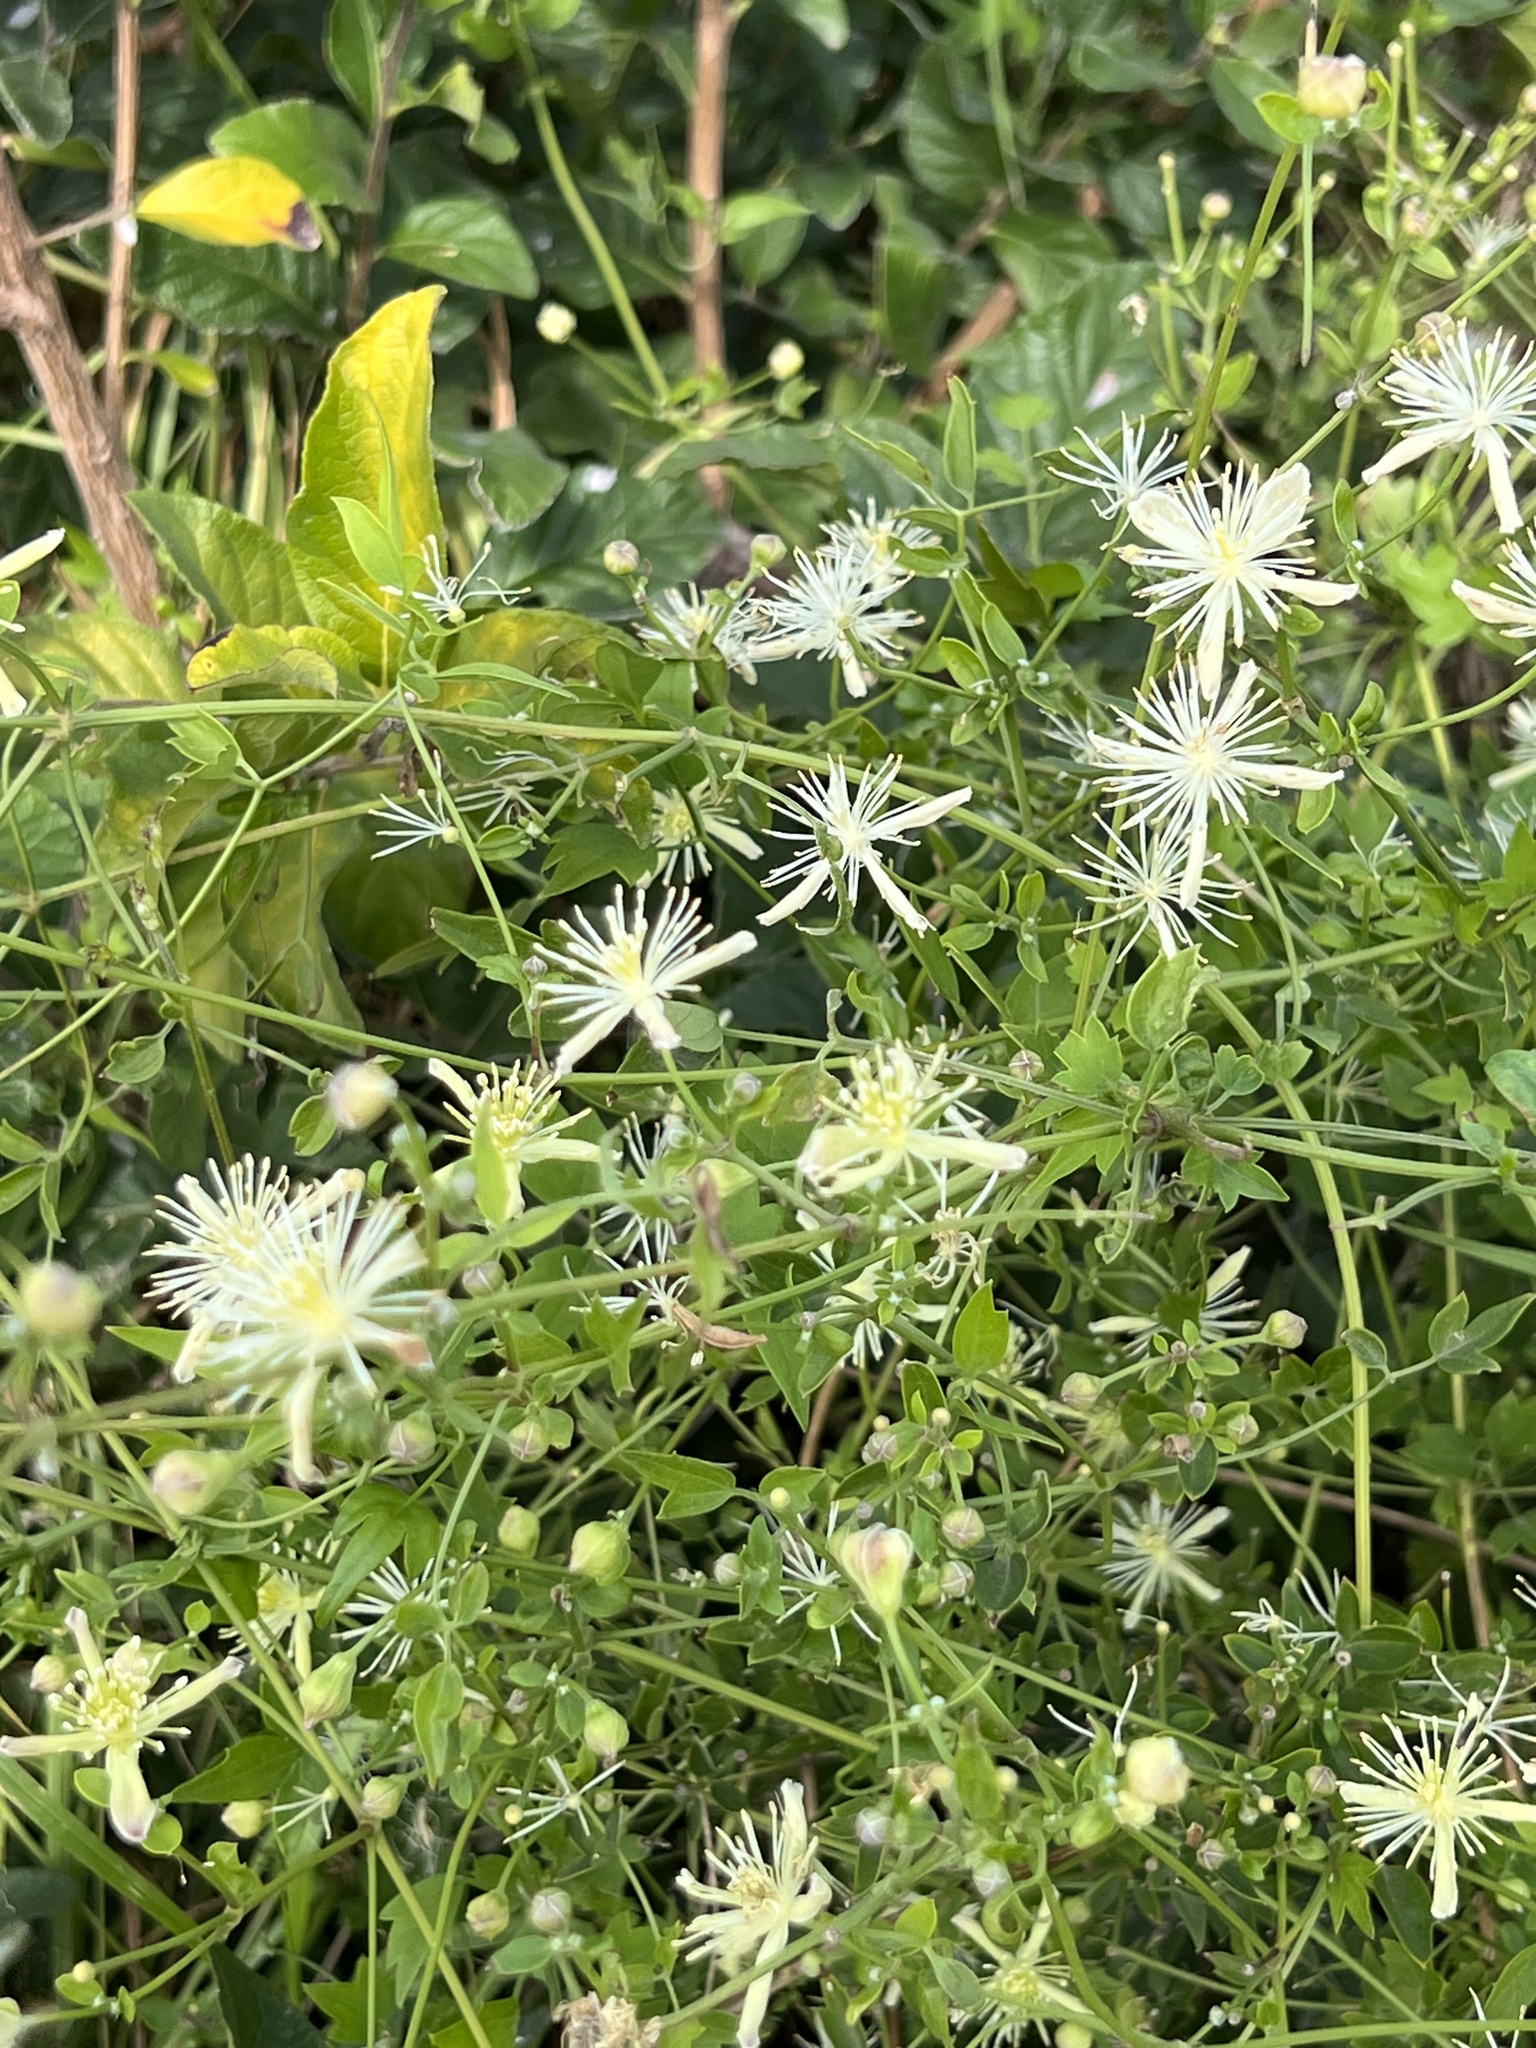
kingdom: Plantae
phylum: Tracheophyta
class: Magnoliopsida
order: Ranunculales
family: Ranunculaceae
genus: Clematis
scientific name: Clematis drummondii
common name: Texas virgin's bower
